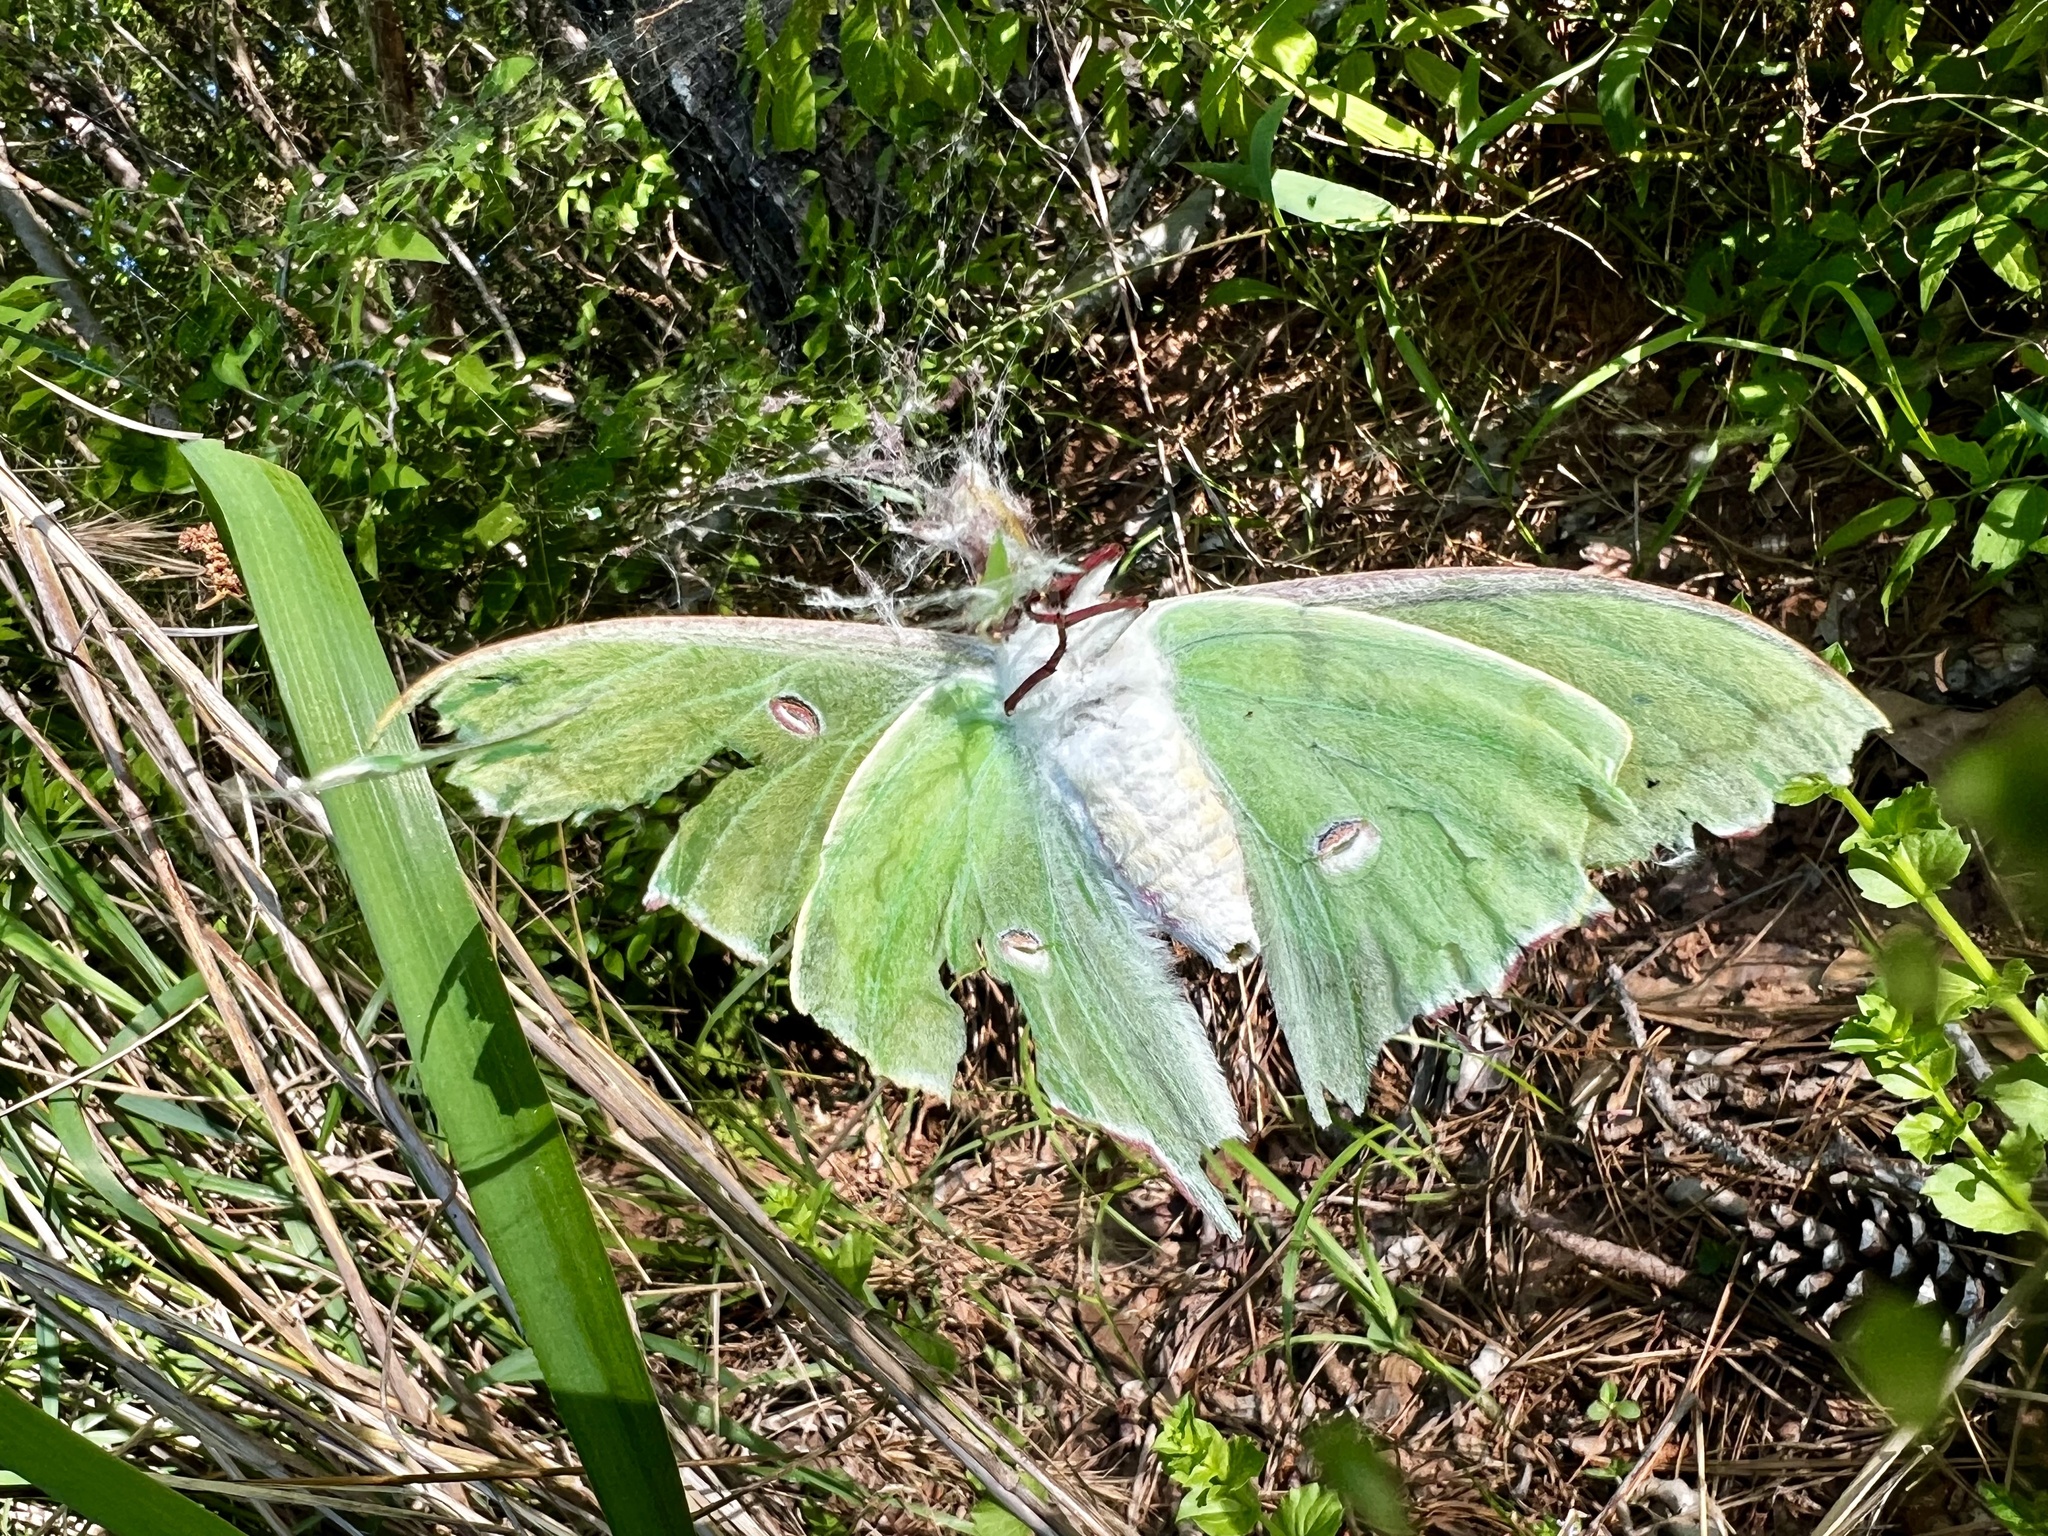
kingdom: Animalia
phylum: Arthropoda
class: Insecta
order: Lepidoptera
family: Saturniidae
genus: Actias
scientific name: Actias luna
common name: Luna moth
